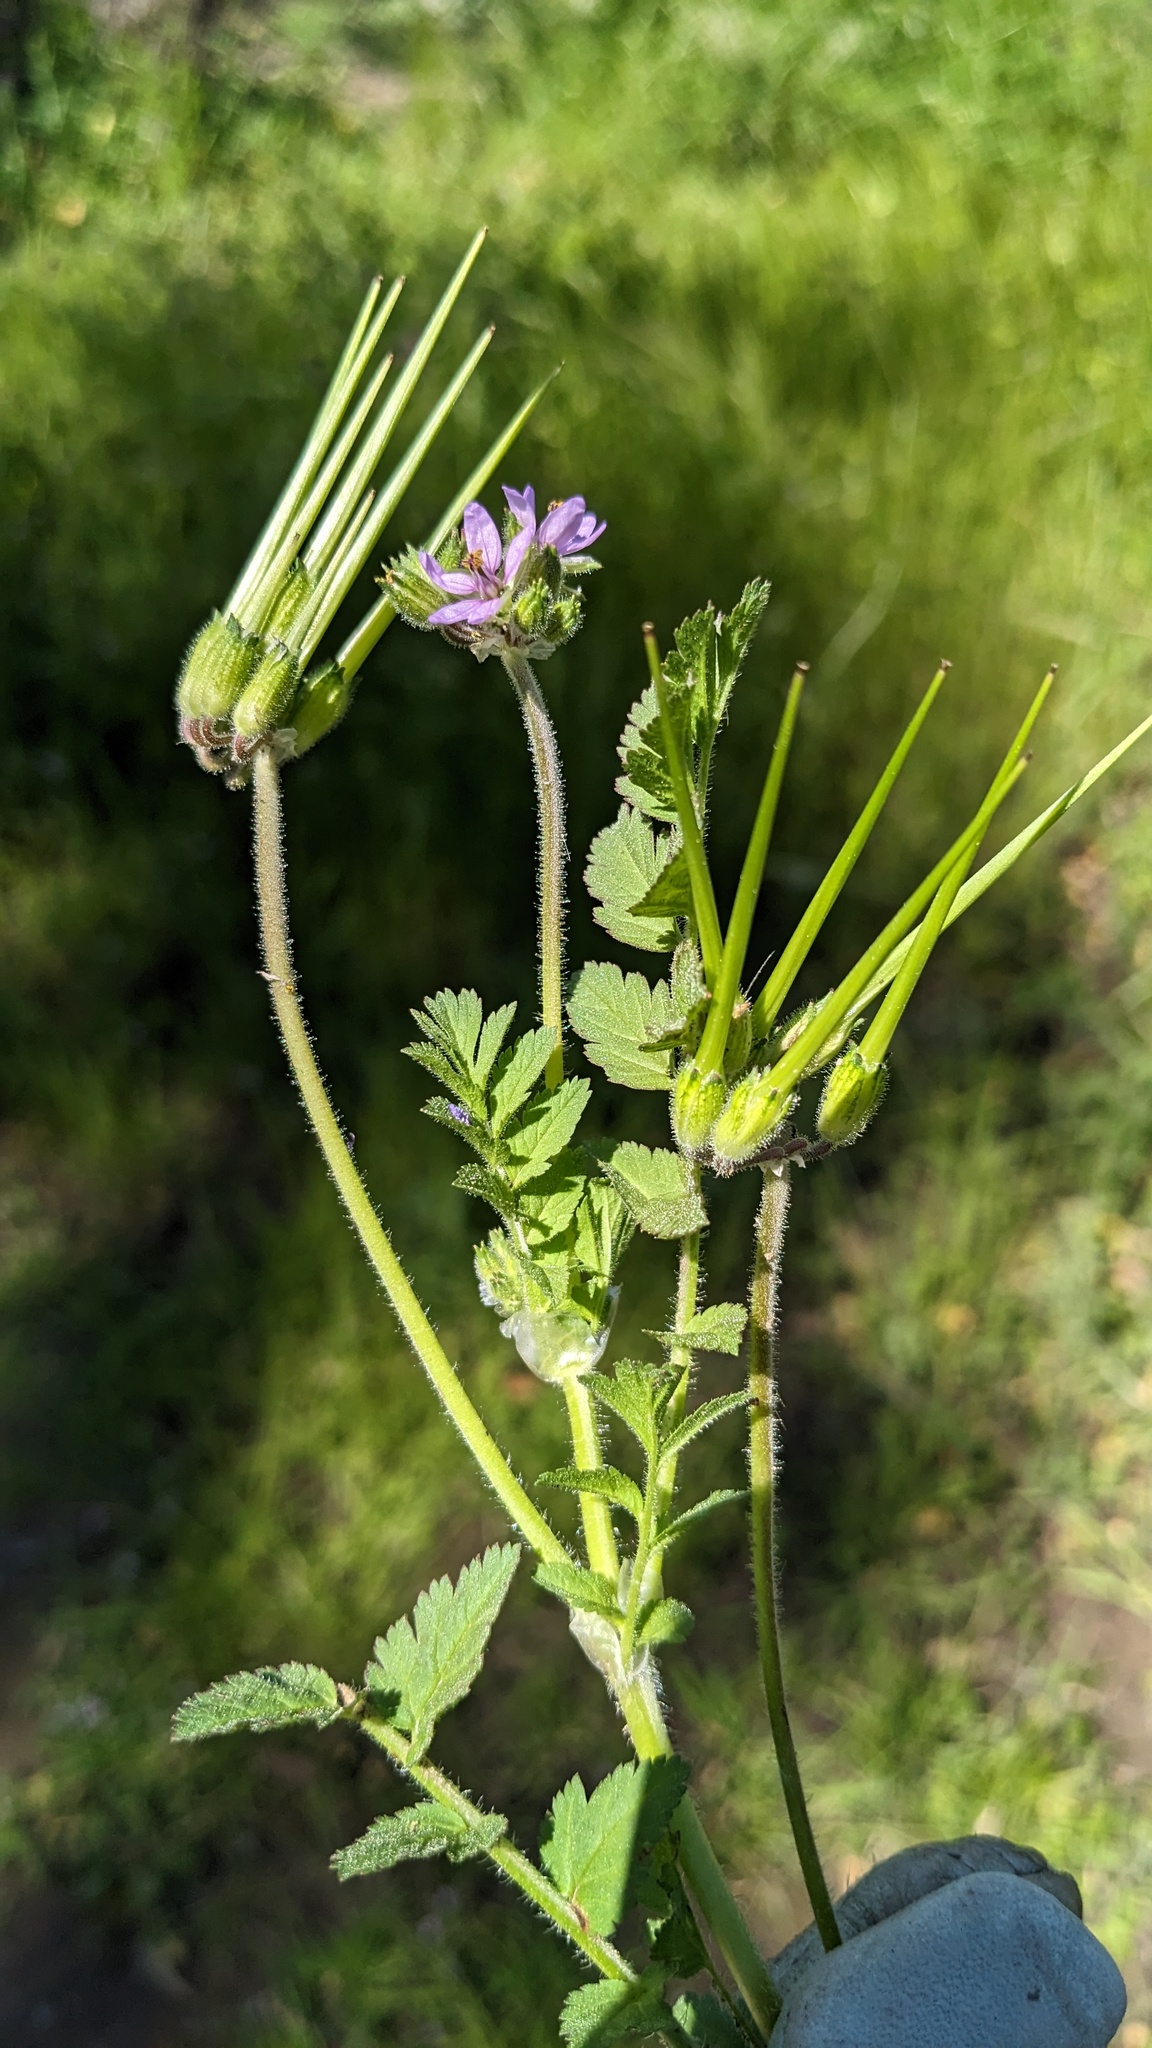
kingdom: Plantae
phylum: Tracheophyta
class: Magnoliopsida
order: Geraniales
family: Geraniaceae
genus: Erodium
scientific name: Erodium moschatum
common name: Musk stork's-bill
